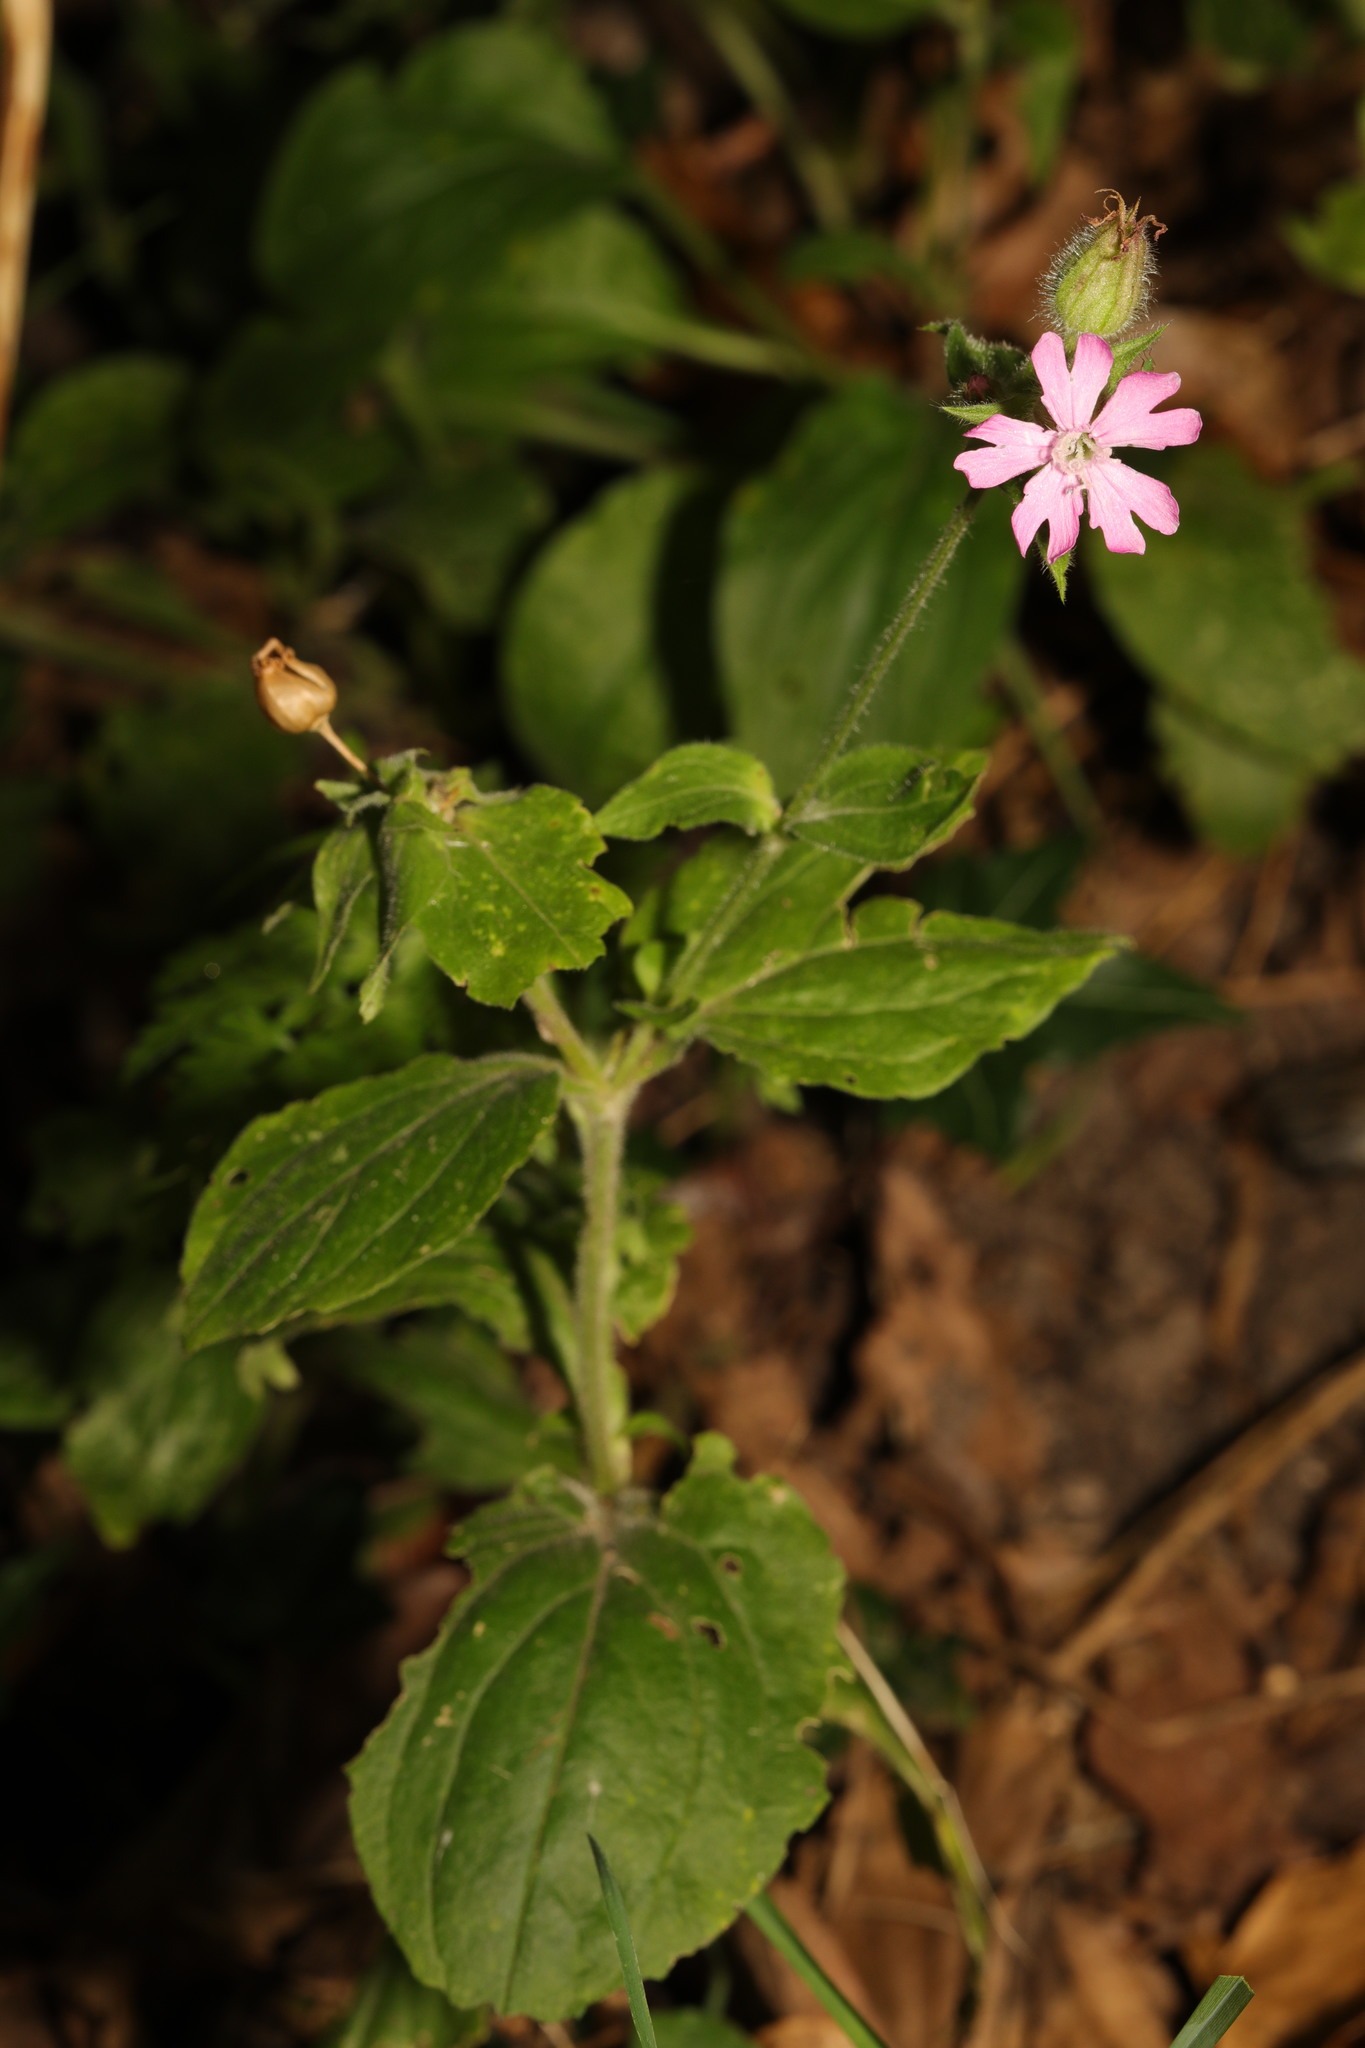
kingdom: Plantae
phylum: Tracheophyta
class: Magnoliopsida
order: Caryophyllales
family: Caryophyllaceae
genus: Silene
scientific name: Silene dioica
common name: Red campion
